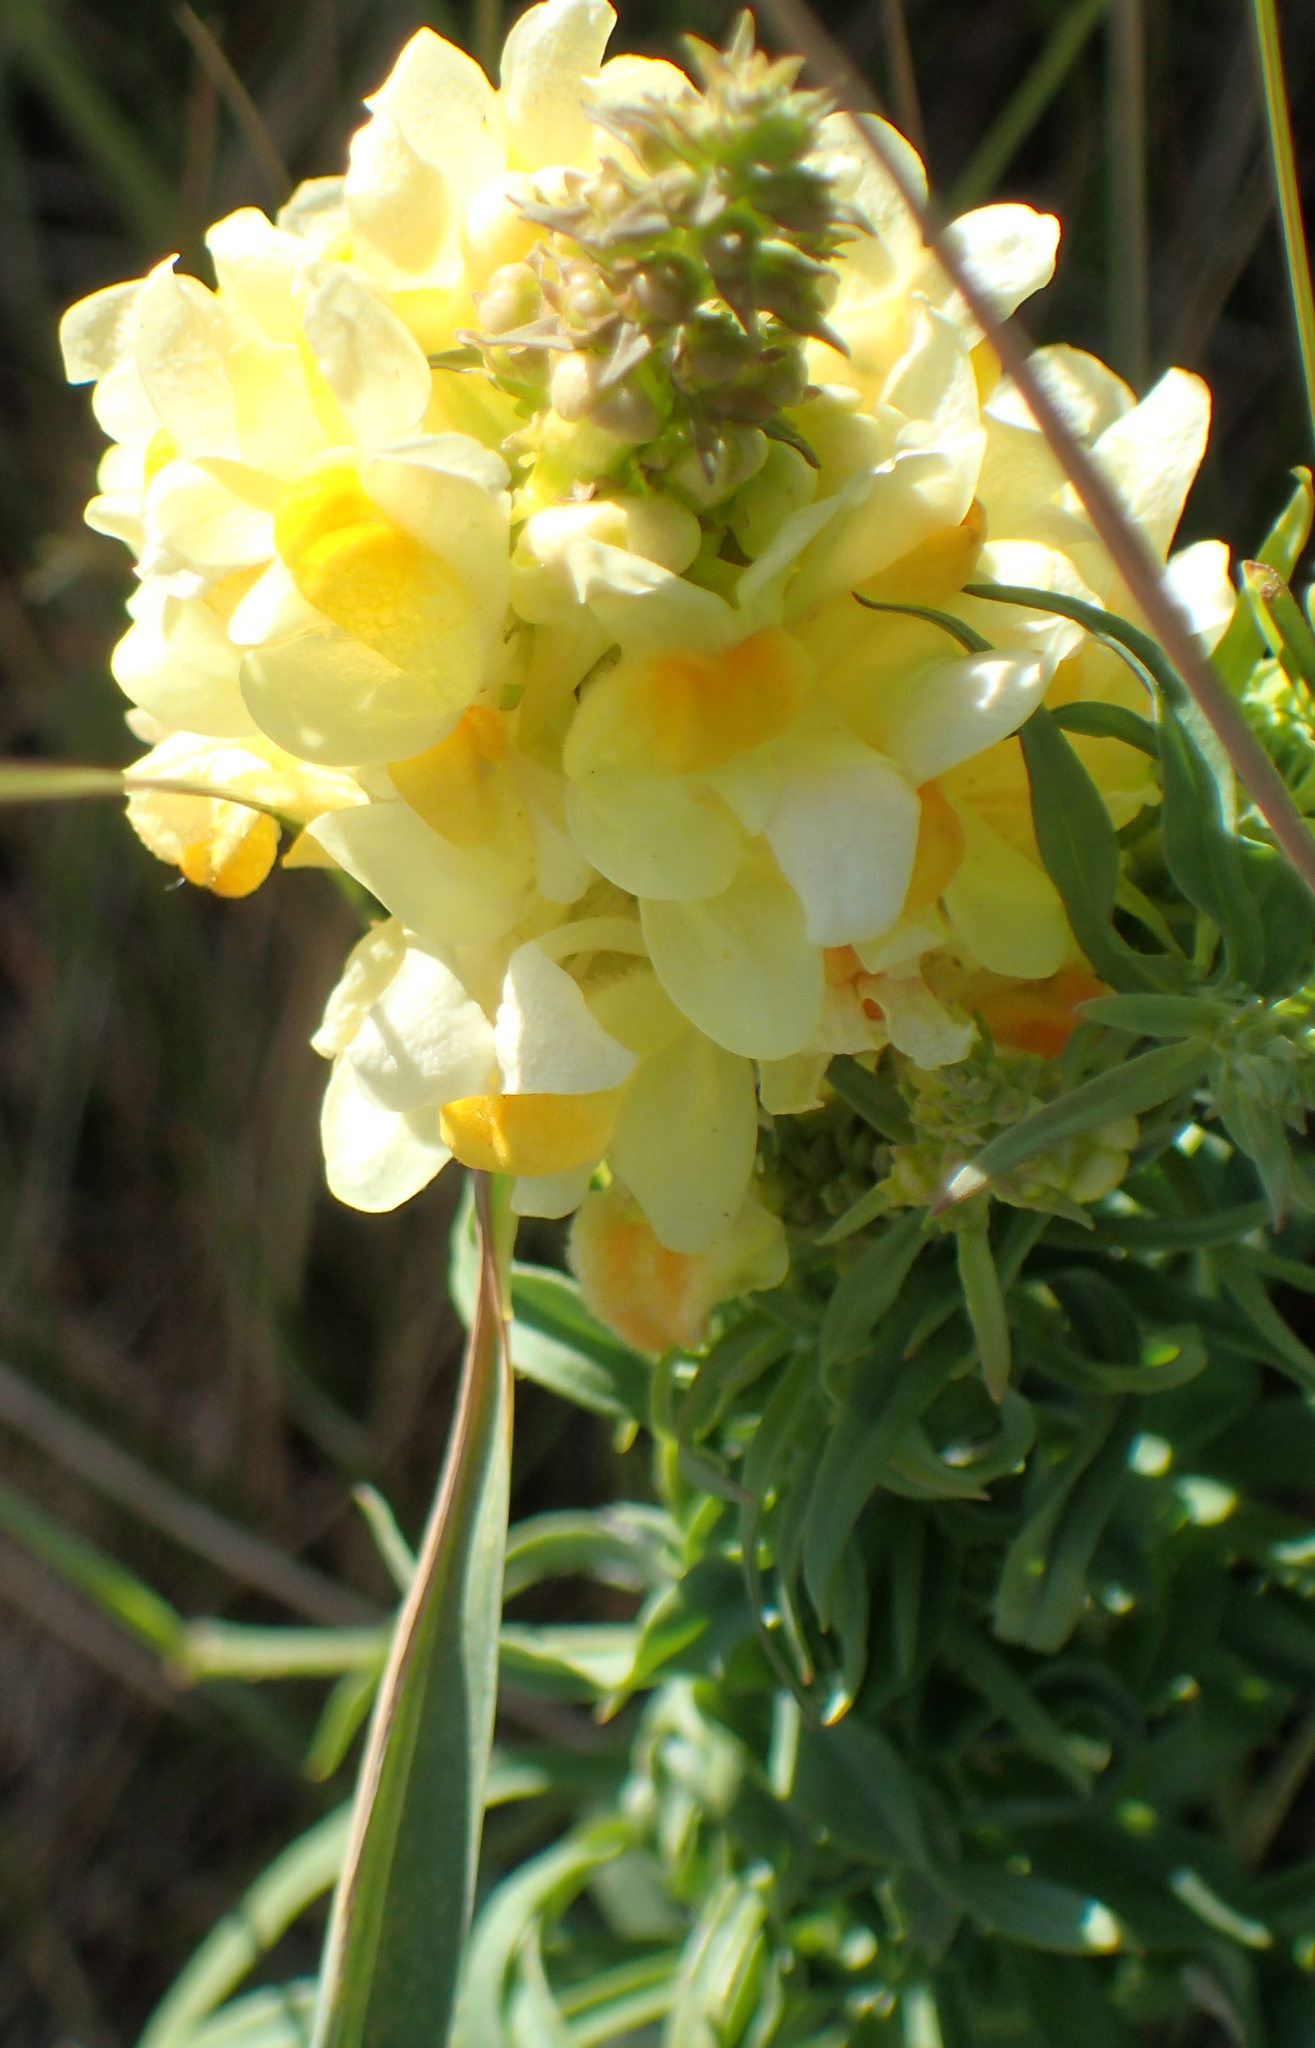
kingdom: Plantae
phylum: Tracheophyta
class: Magnoliopsida
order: Lamiales
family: Plantaginaceae
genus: Linaria
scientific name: Linaria vulgaris
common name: Butter and eggs
